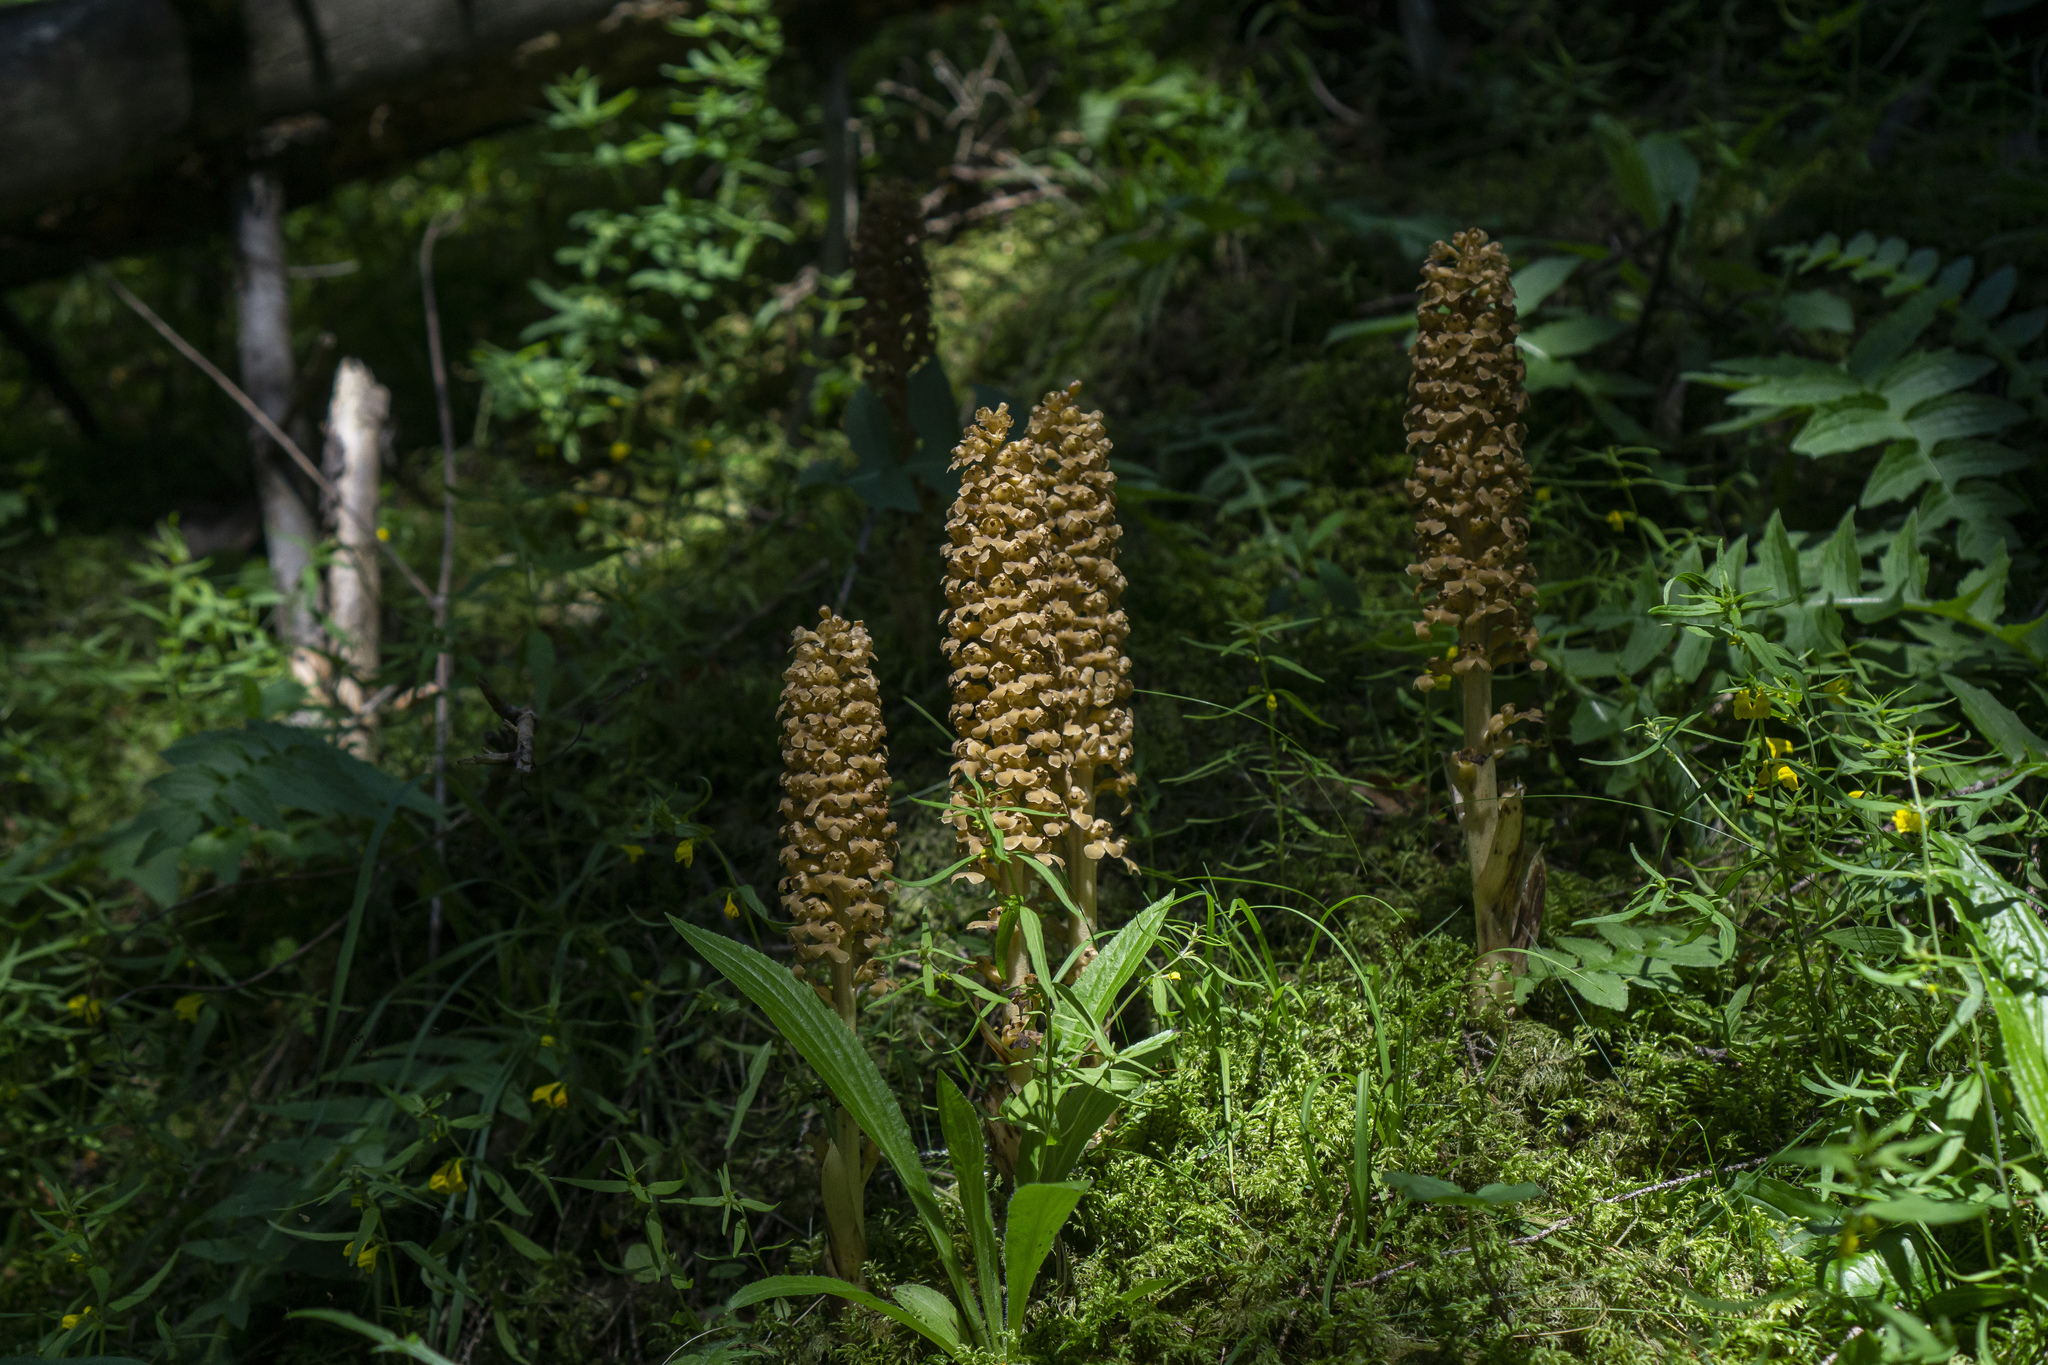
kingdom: Plantae
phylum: Tracheophyta
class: Liliopsida
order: Asparagales
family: Orchidaceae
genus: Neottia
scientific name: Neottia nidus-avis
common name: Bird's-nest orchid
